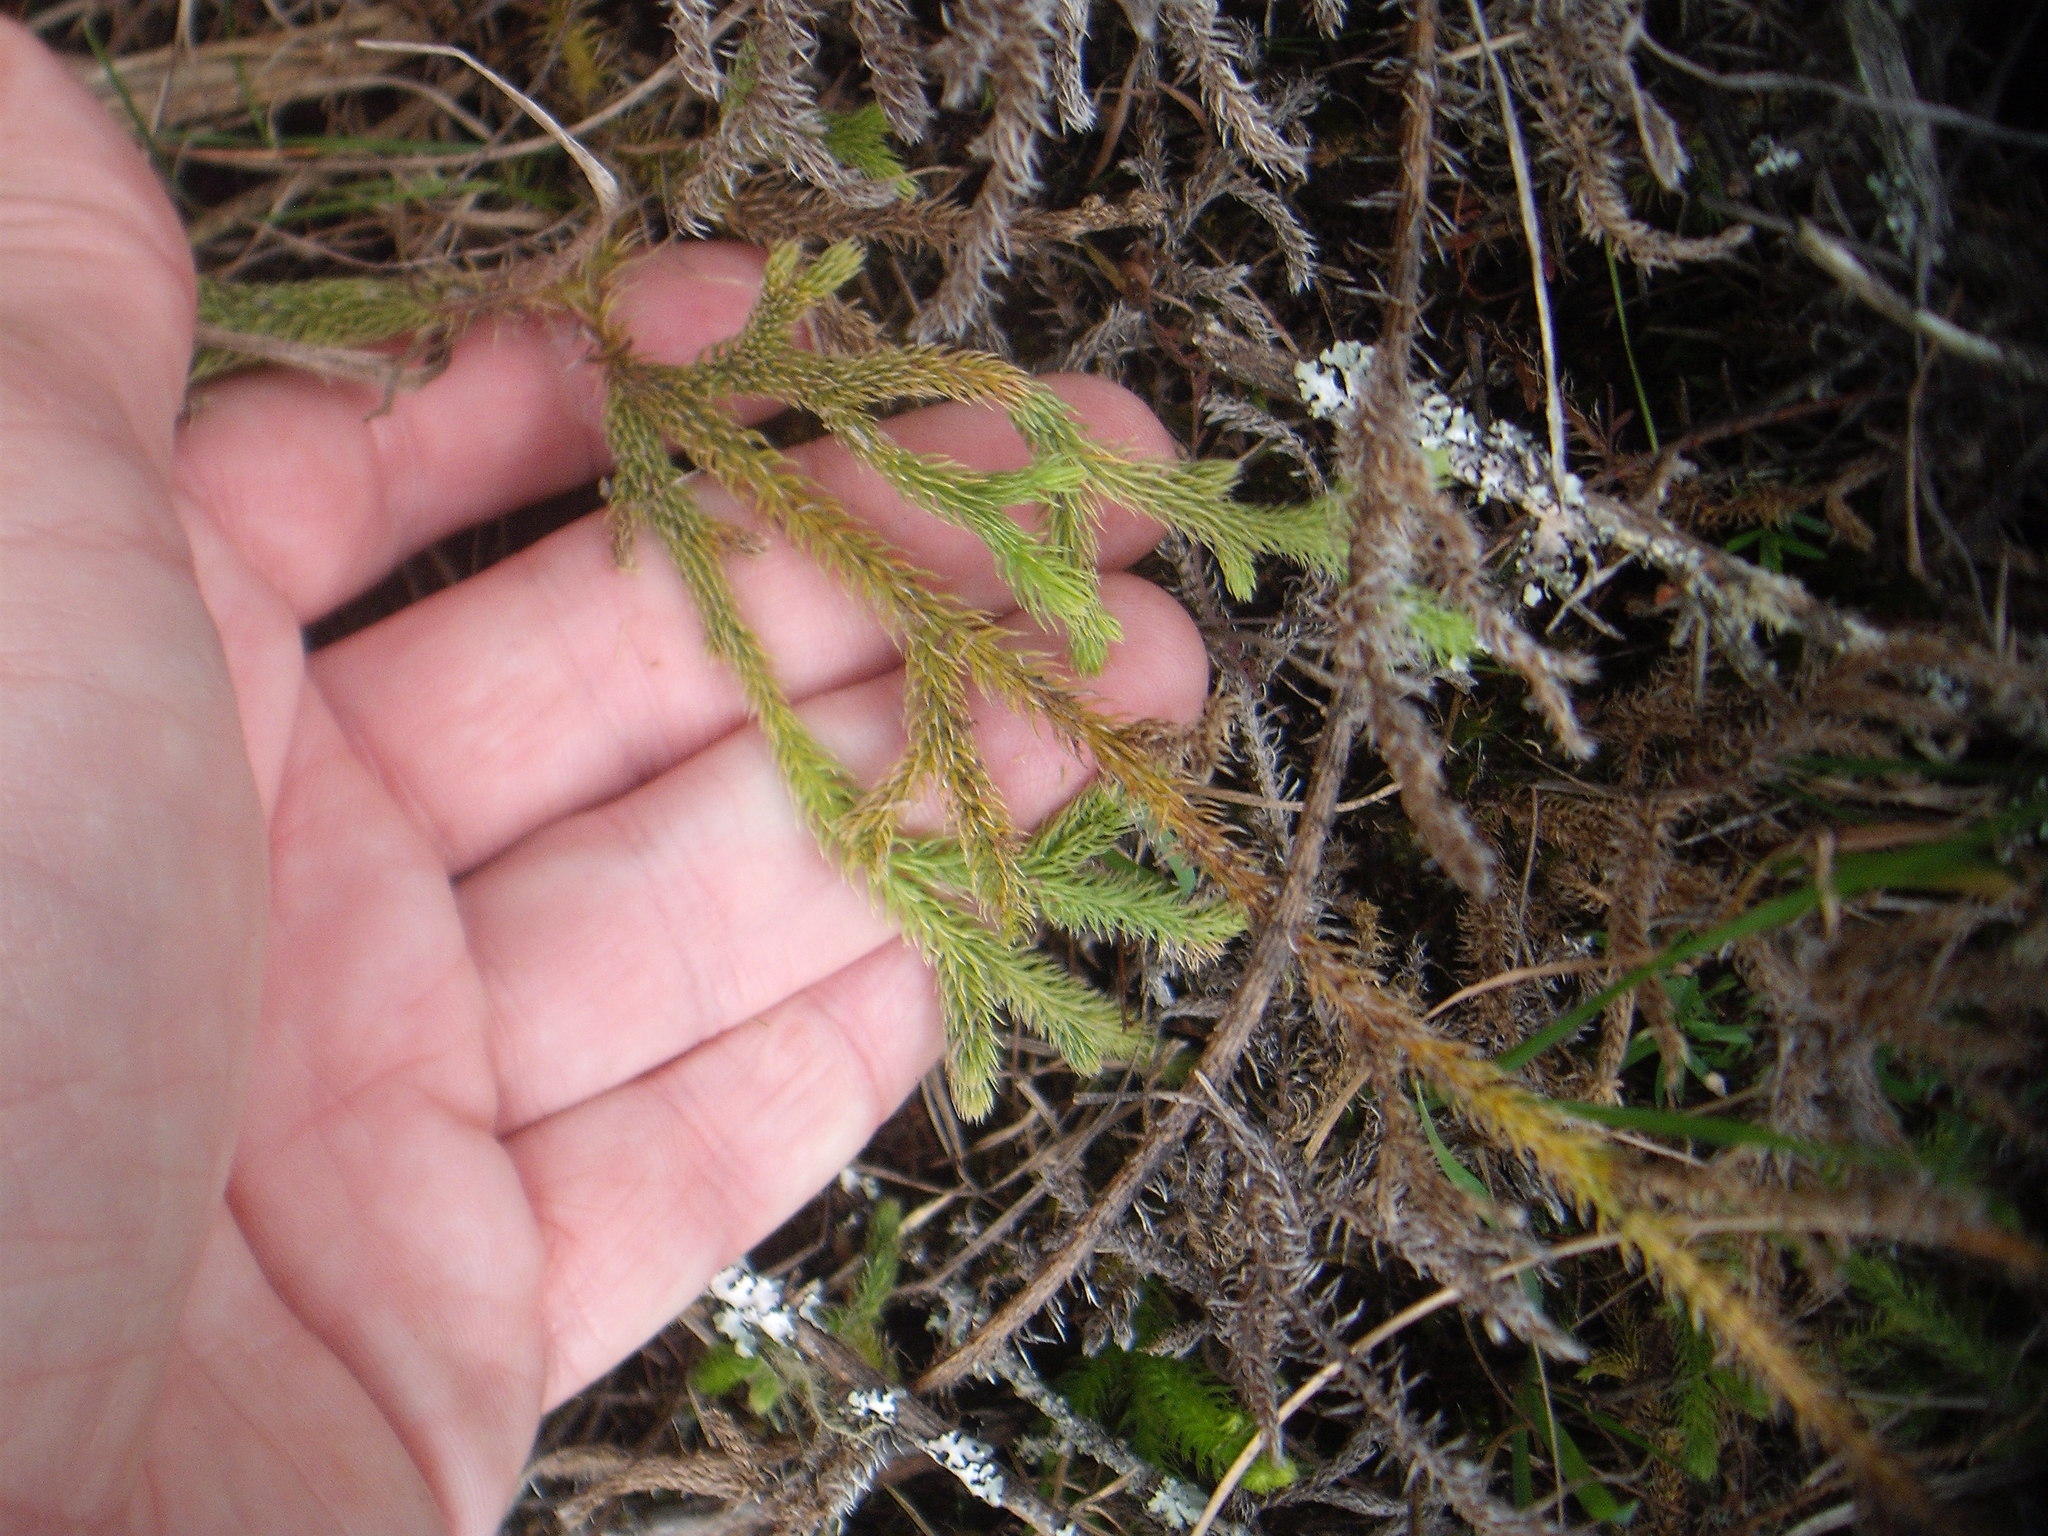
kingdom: Plantae
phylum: Tracheophyta
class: Lycopodiopsida
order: Lycopodiales
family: Lycopodiaceae
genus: Palhinhaea
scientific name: Palhinhaea cernua
